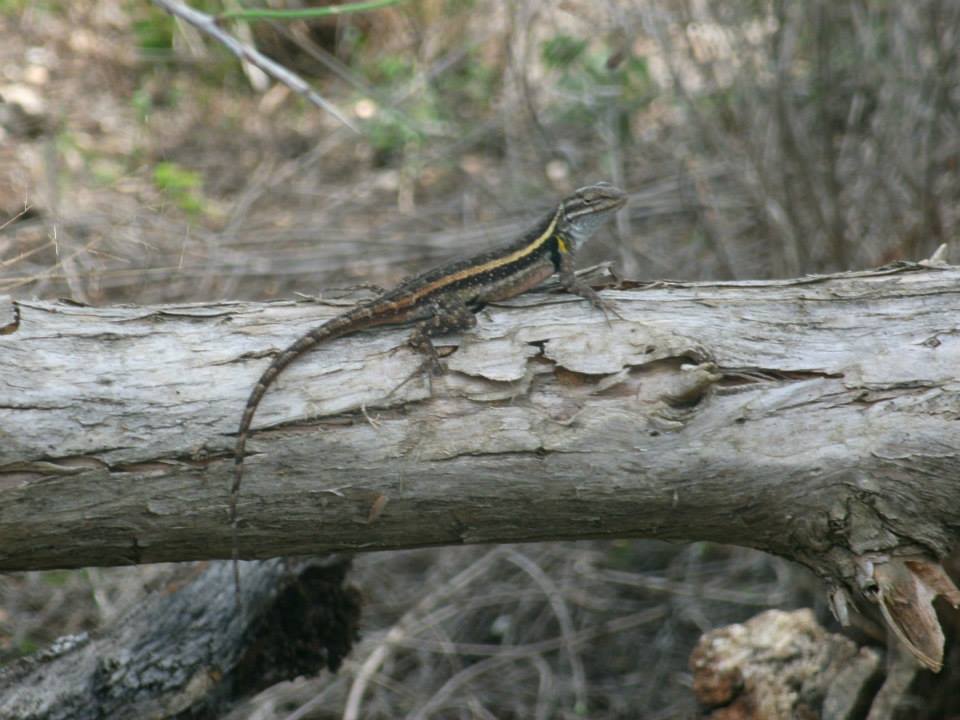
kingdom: Animalia
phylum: Chordata
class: Squamata
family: Phrynosomatidae
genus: Sceloporus
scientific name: Sceloporus variabilis
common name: Rosebelly lizard
